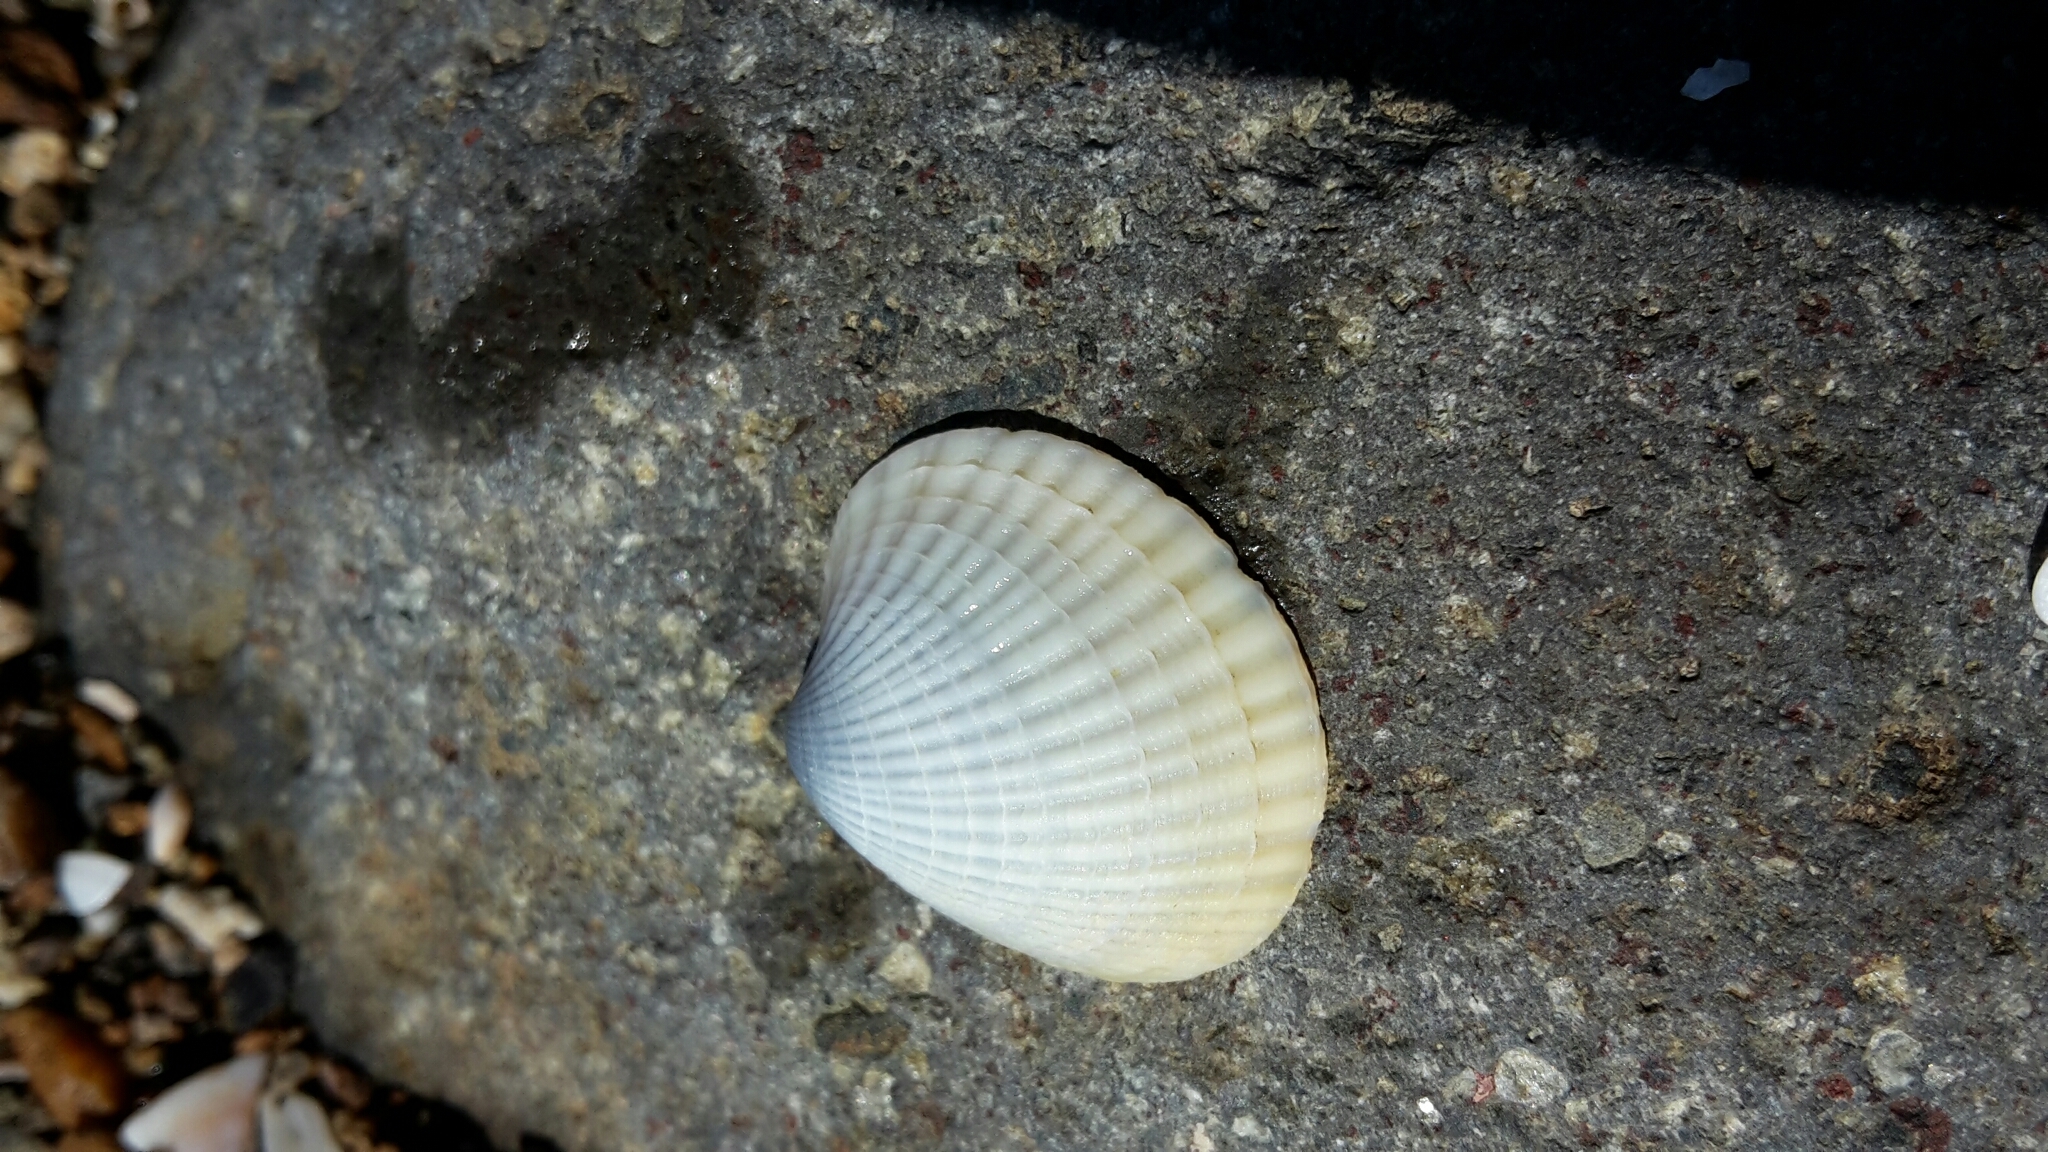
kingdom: Animalia
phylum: Mollusca
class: Bivalvia
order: Venerida
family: Veneridae
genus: Austrovenus
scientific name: Austrovenus stutchburyi
